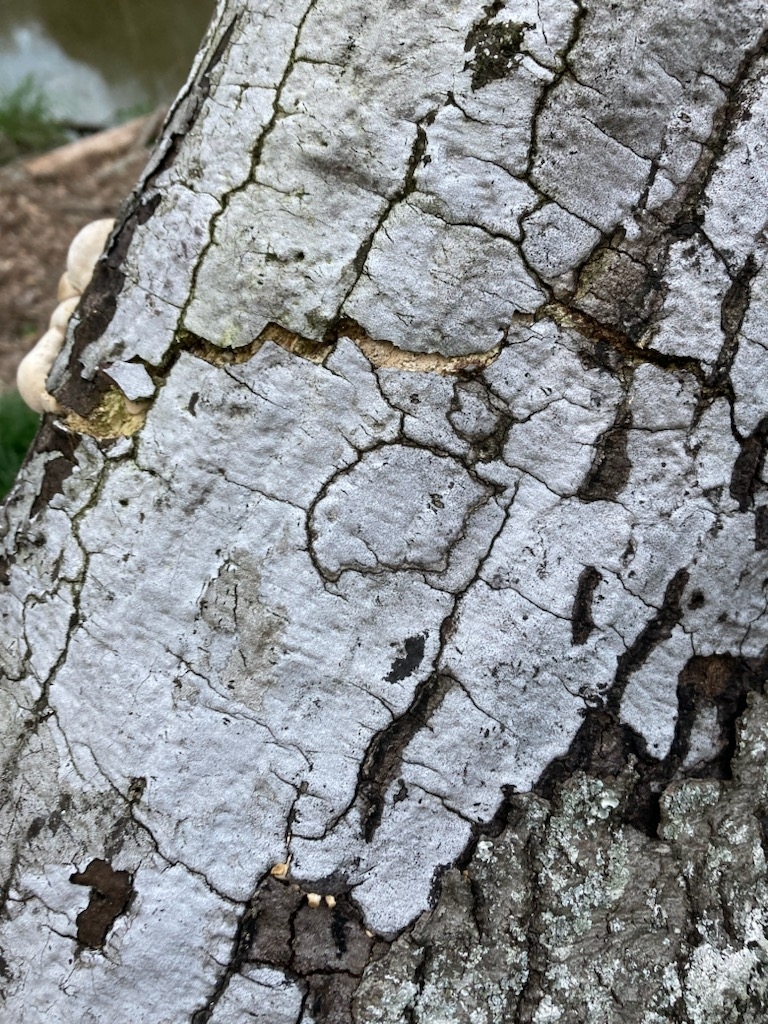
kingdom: Fungi
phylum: Ascomycota
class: Sordariomycetes
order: Xylariales
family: Graphostromataceae
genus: Biscogniauxia
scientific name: Biscogniauxia atropunctata
